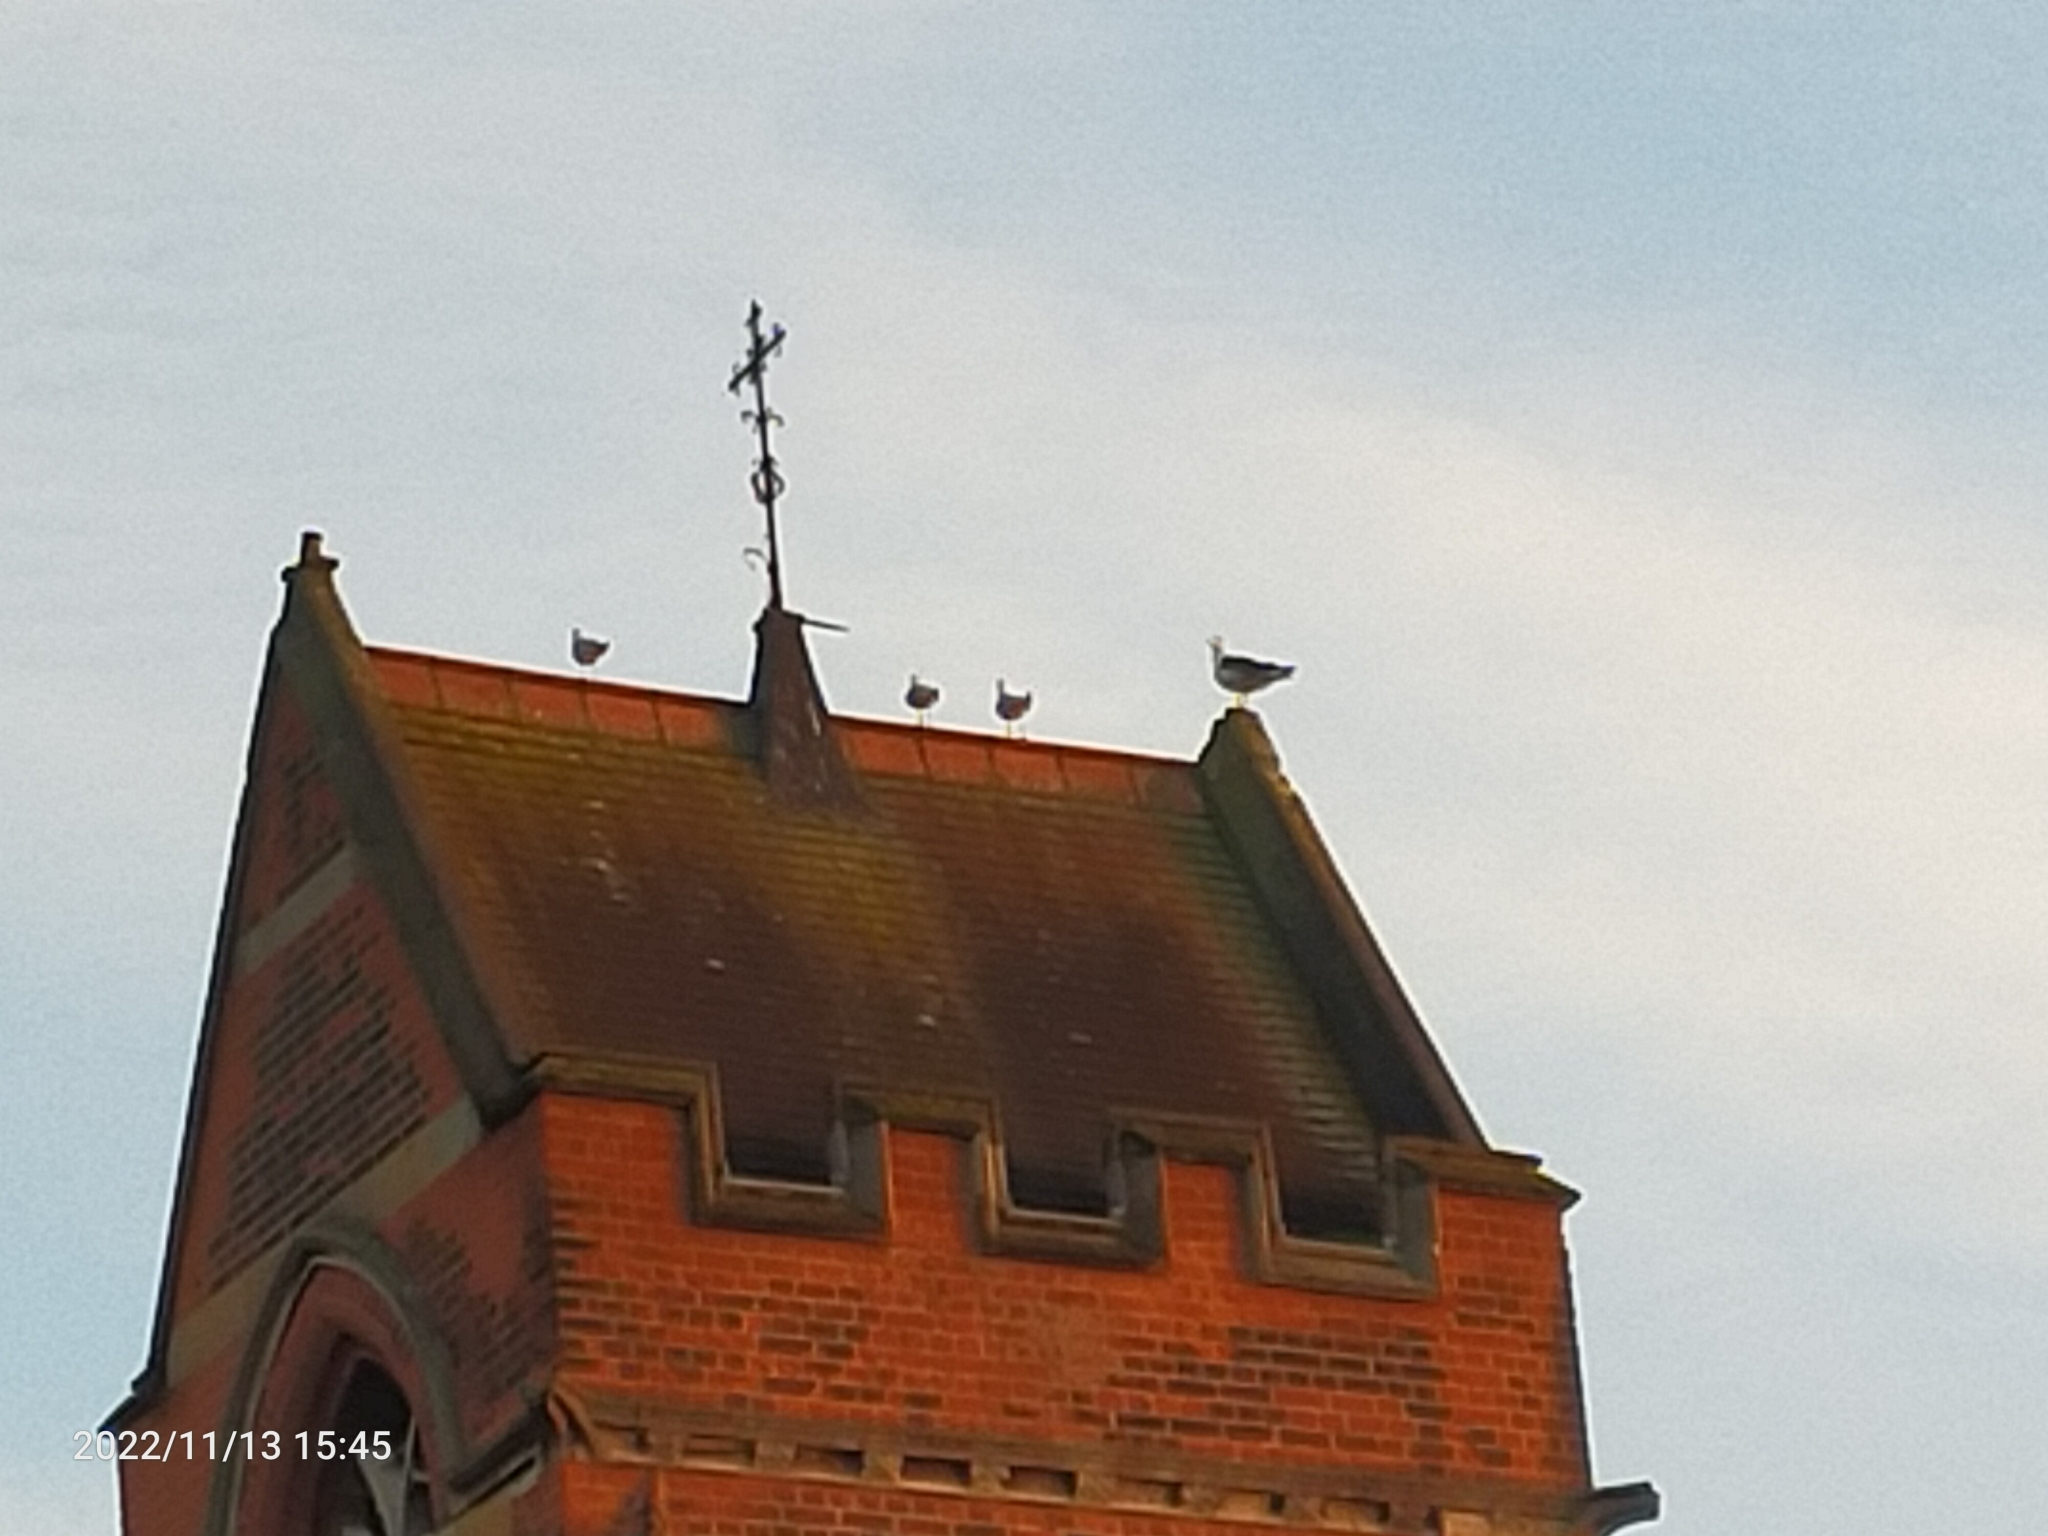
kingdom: Animalia
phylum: Chordata
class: Aves
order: Charadriiformes
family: Laridae
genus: Larus
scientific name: Larus fuscus
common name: Lesser black-backed gull
